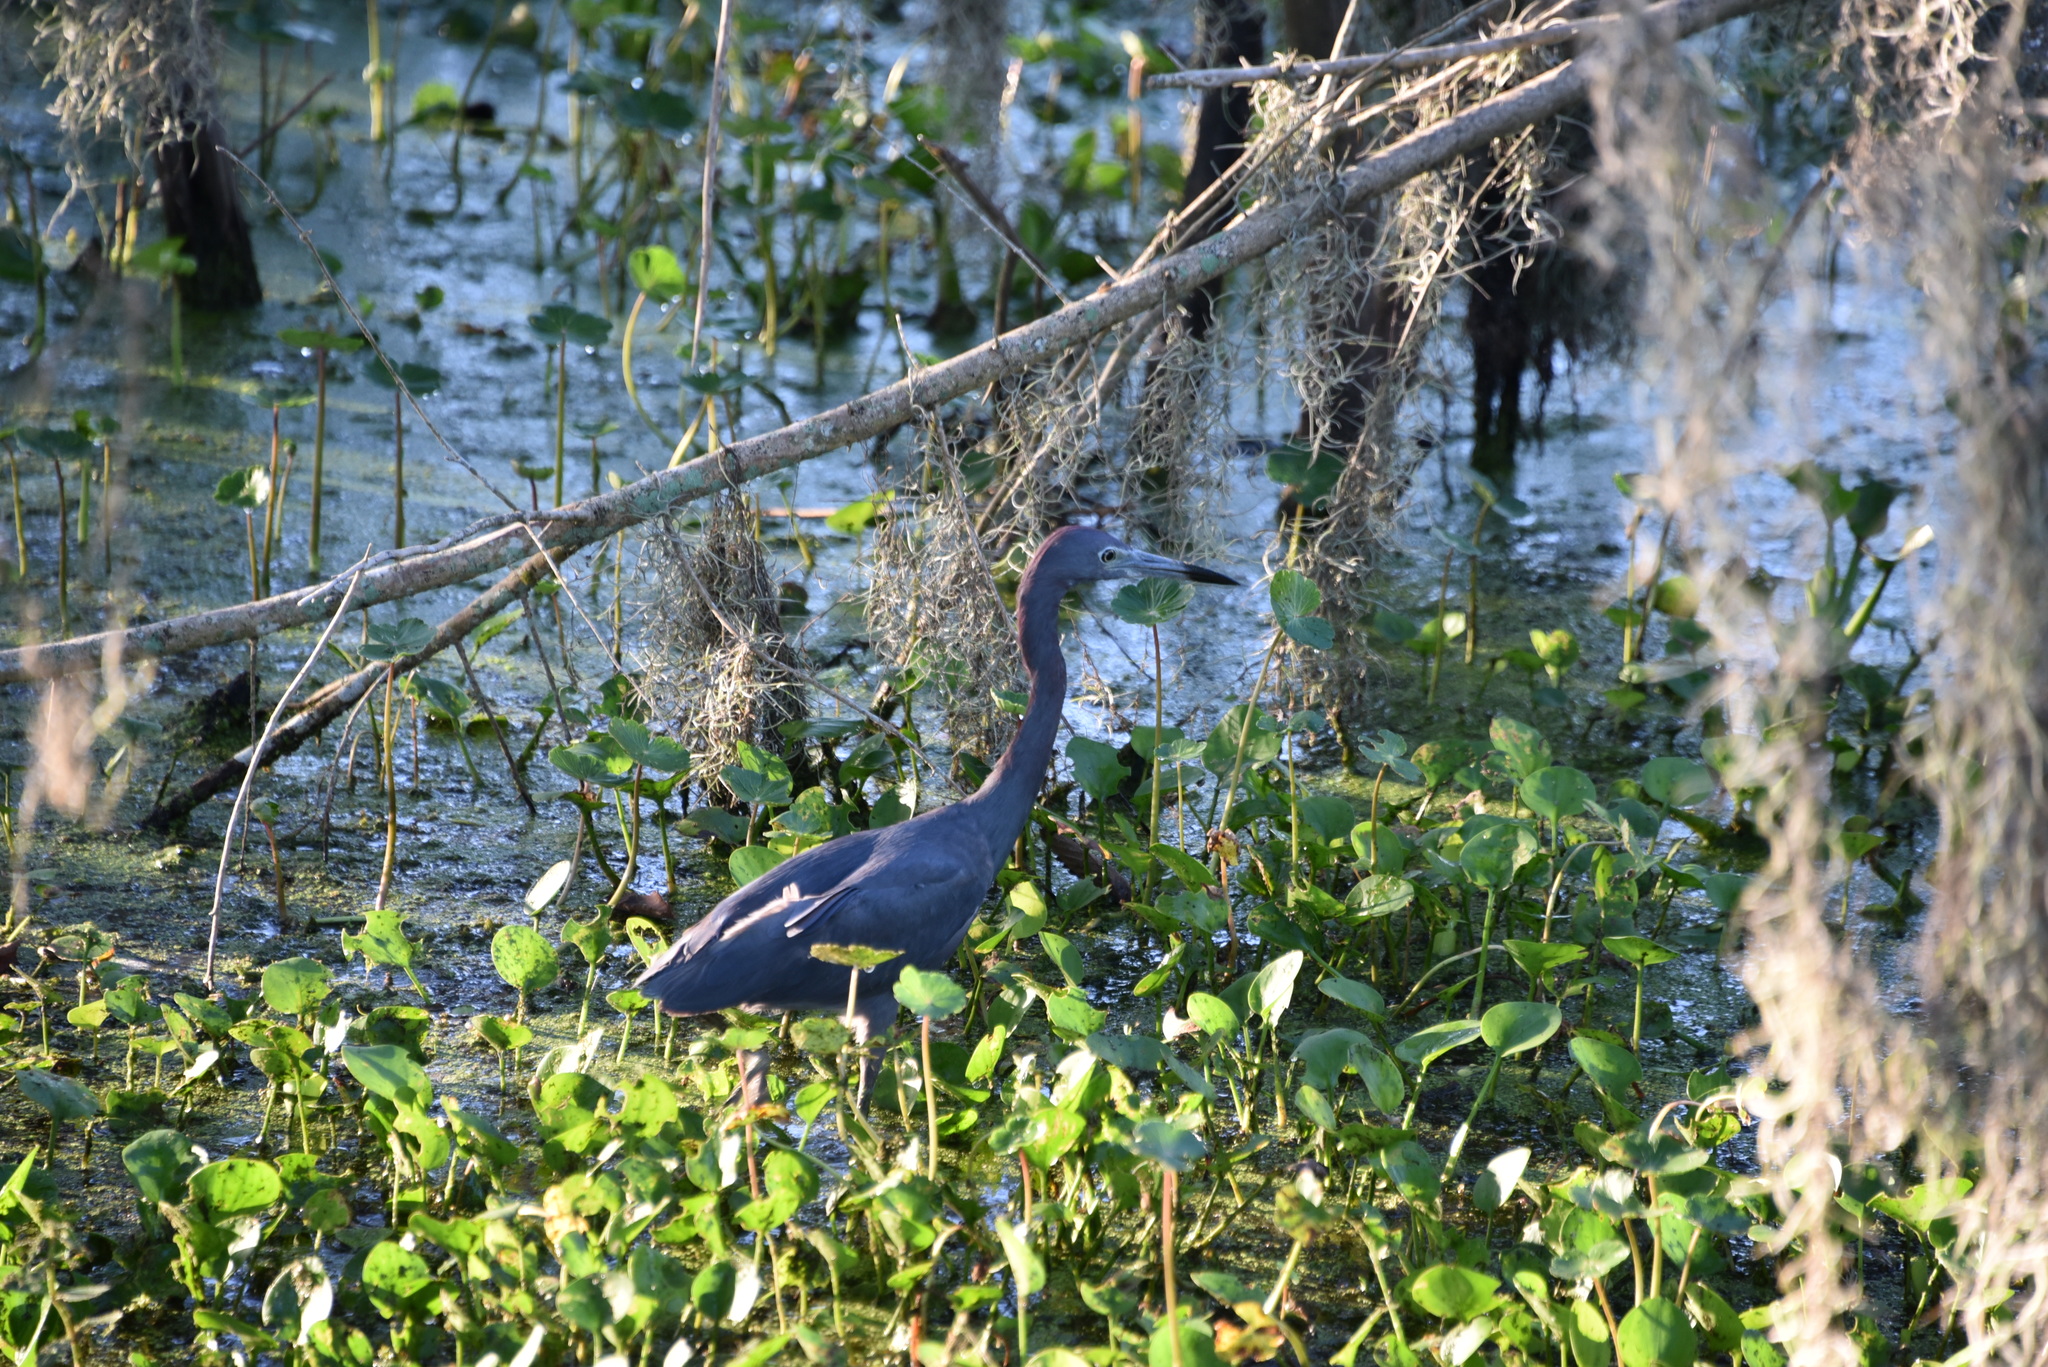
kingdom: Animalia
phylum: Chordata
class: Aves
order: Pelecaniformes
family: Ardeidae
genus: Egretta
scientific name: Egretta caerulea
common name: Little blue heron
